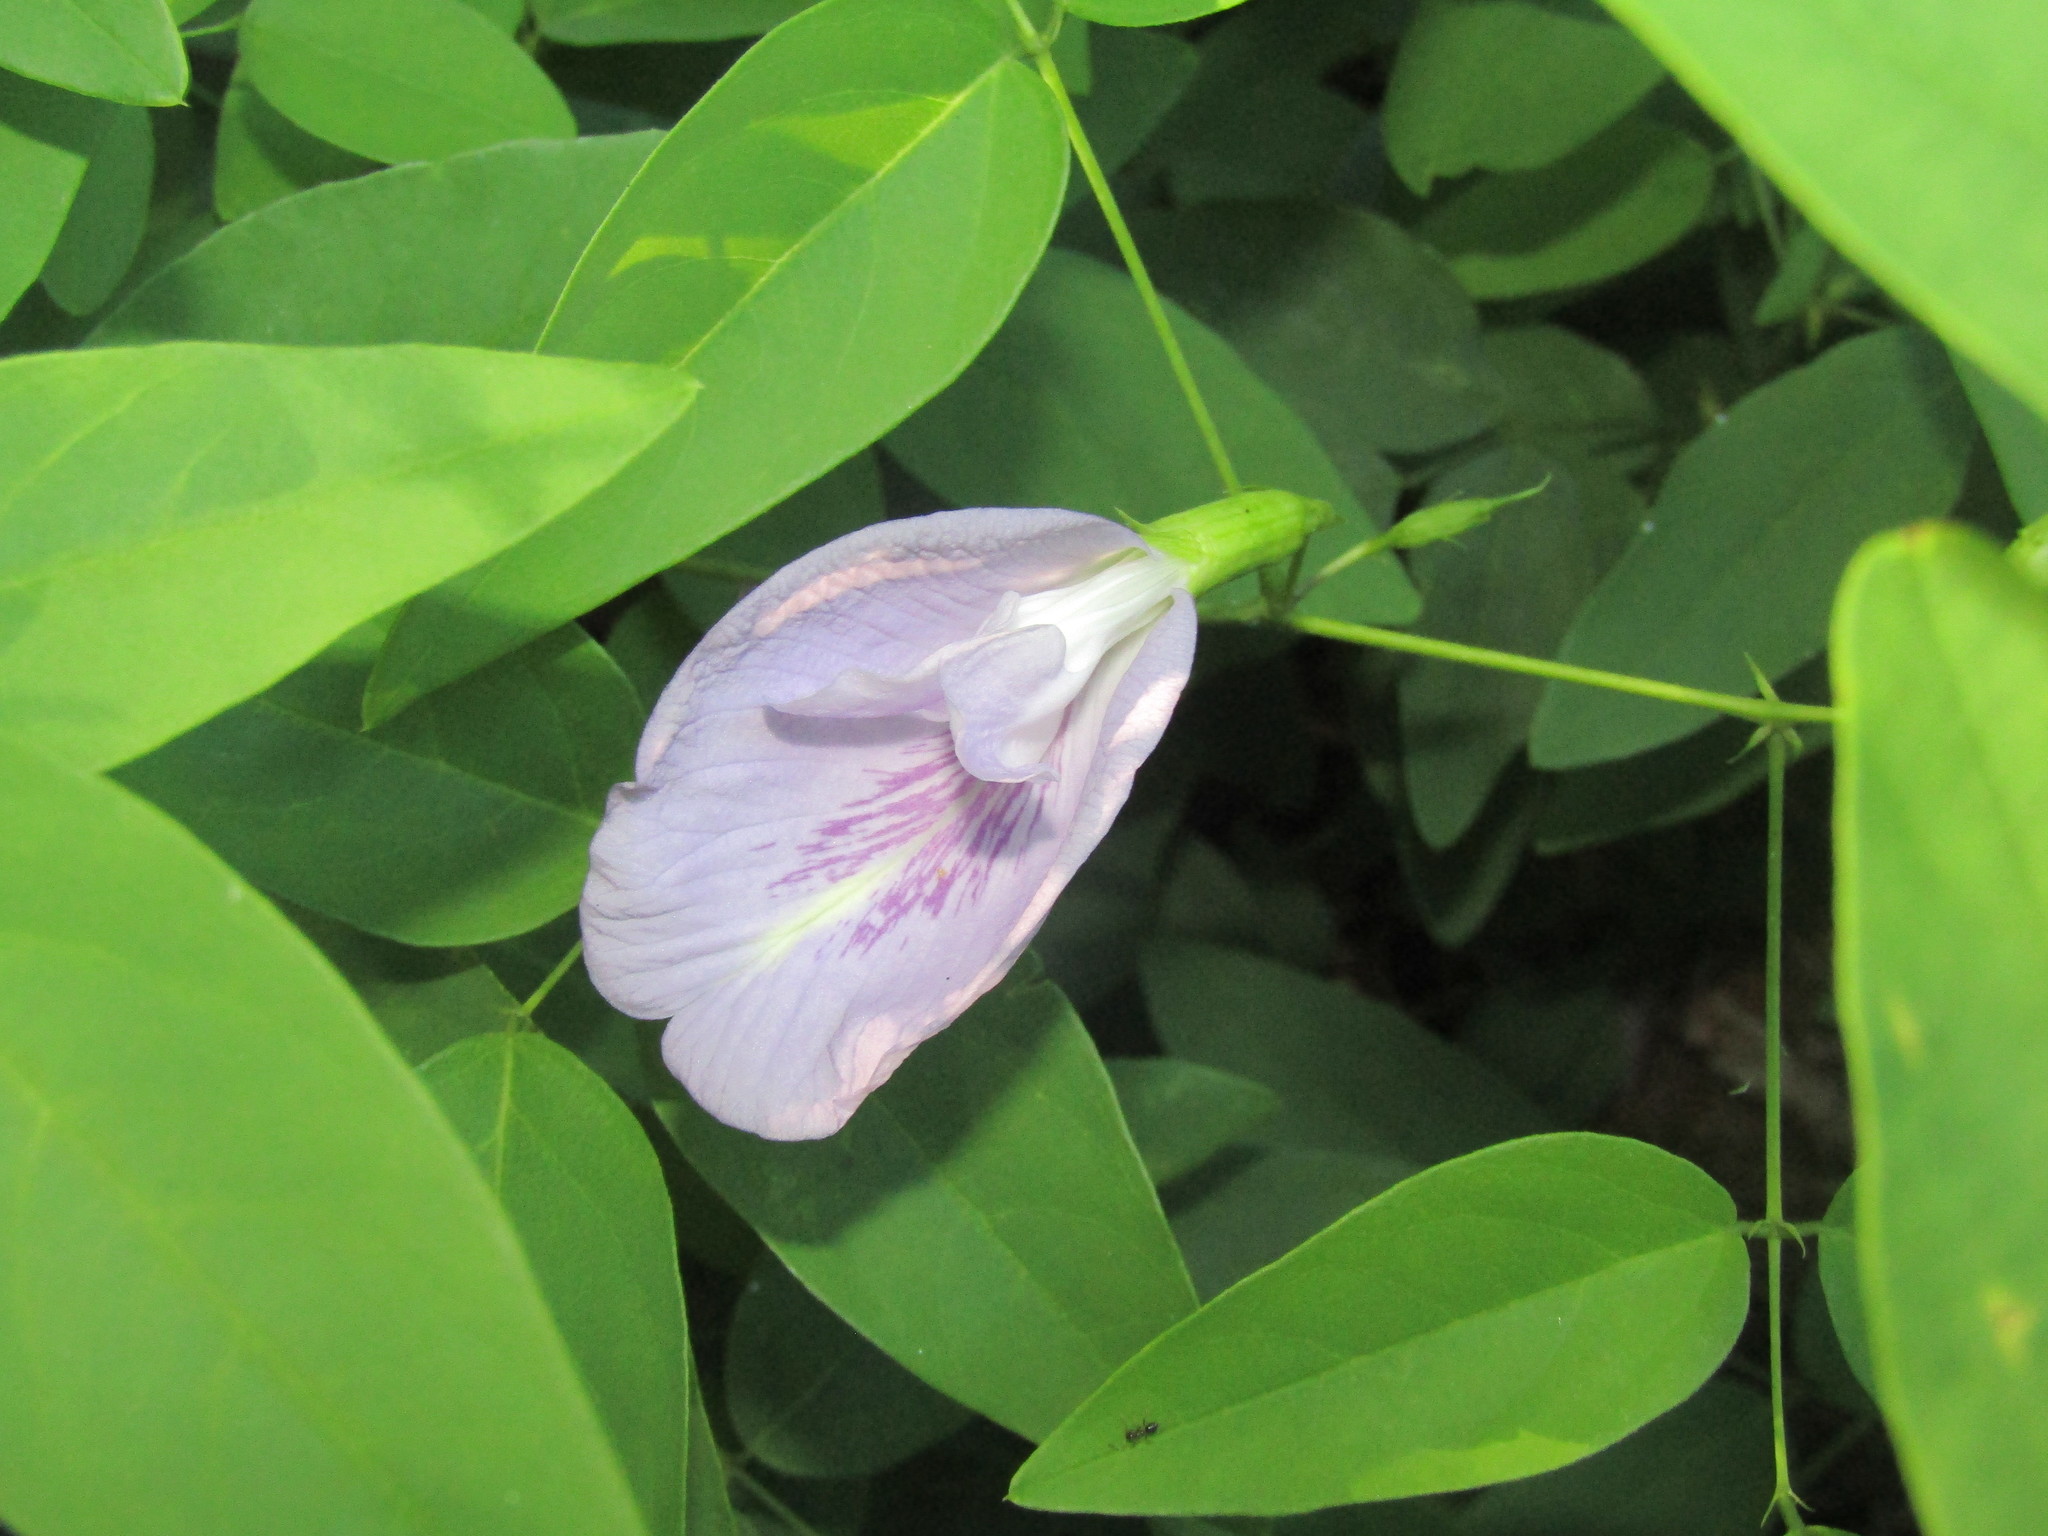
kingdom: Plantae
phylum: Tracheophyta
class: Magnoliopsida
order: Fabales
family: Fabaceae
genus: Clitoria
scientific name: Clitoria mariana
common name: Butterfly-pea
